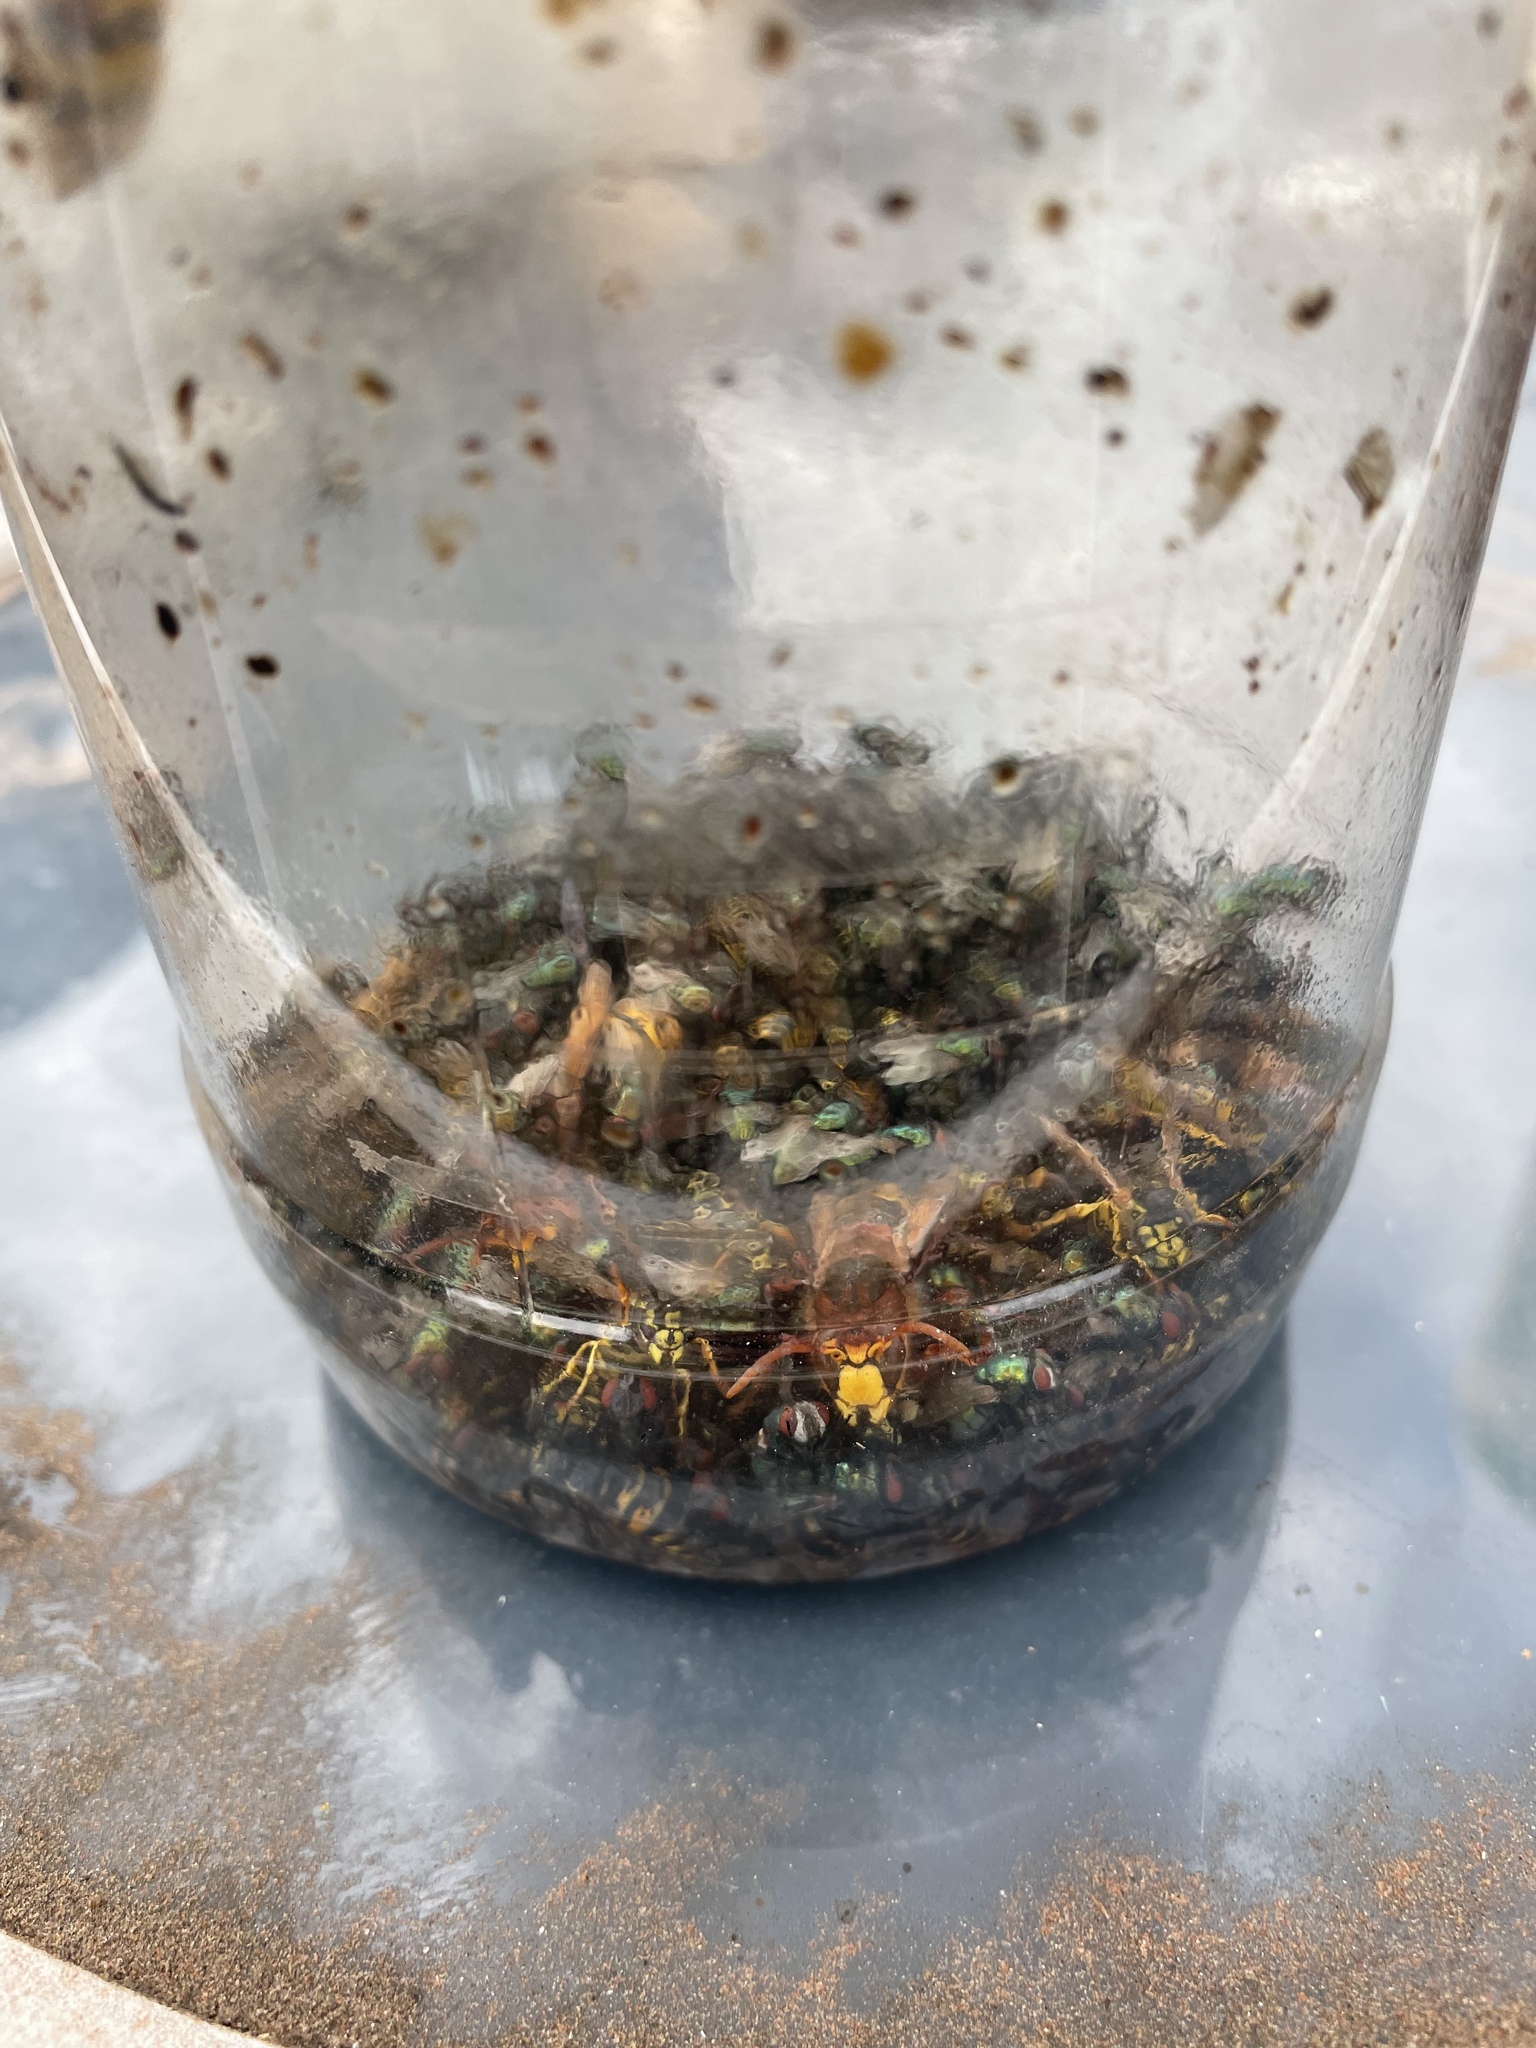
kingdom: Animalia
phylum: Arthropoda
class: Insecta
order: Hymenoptera
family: Vespidae
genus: Vespa
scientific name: Vespa crabro
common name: Hornet
